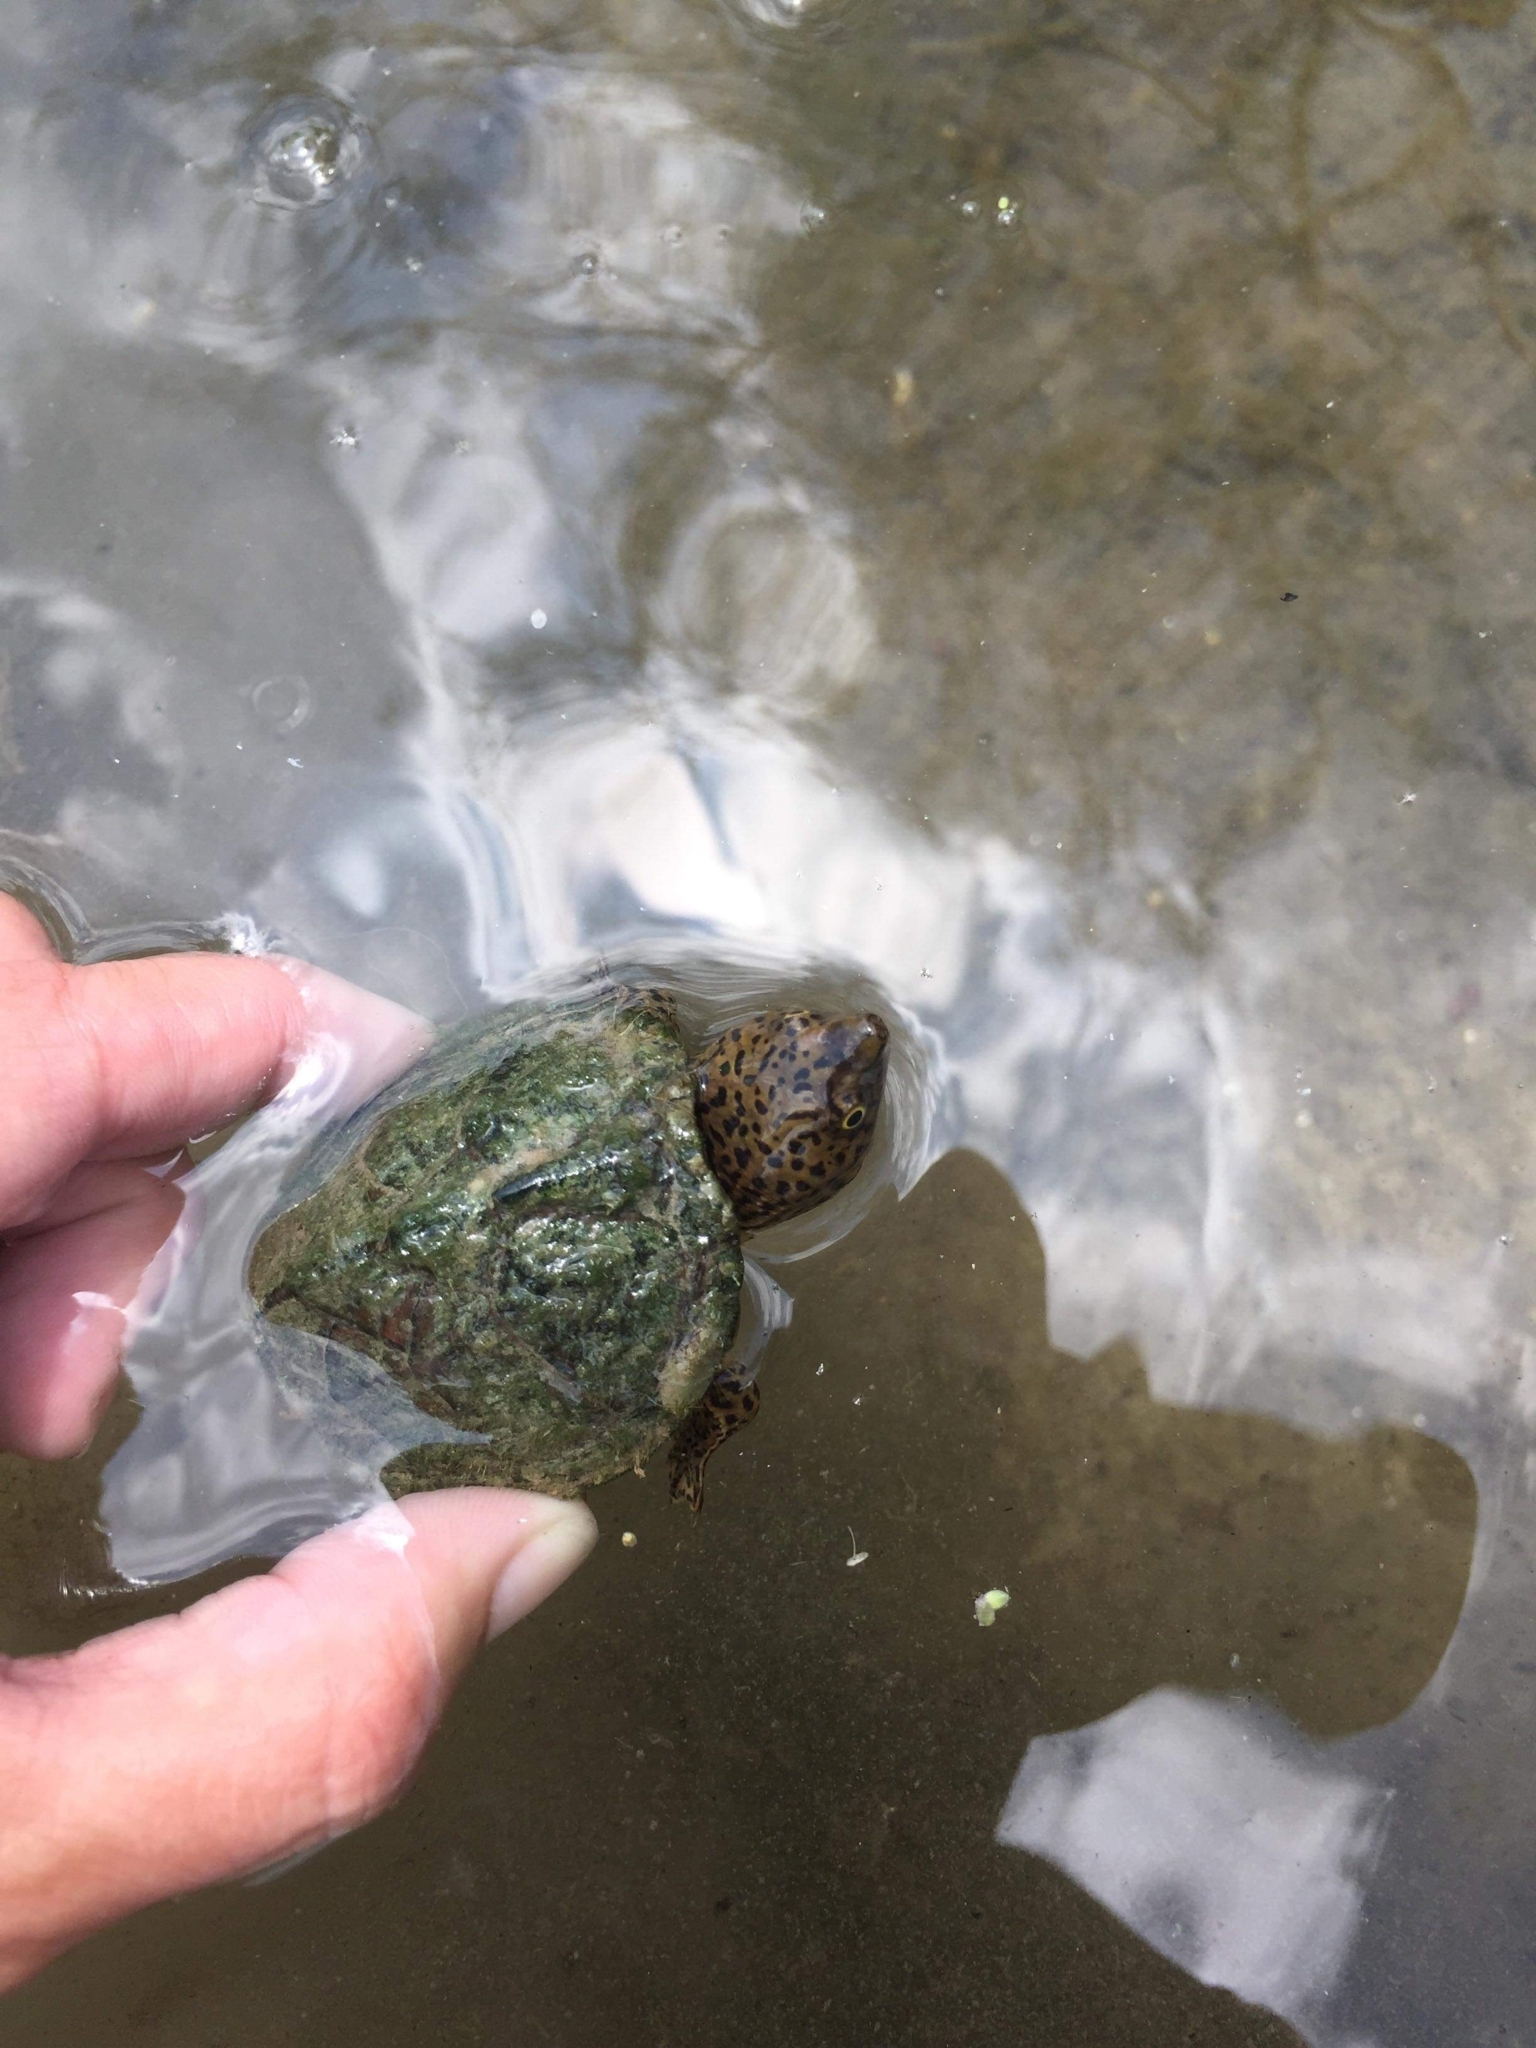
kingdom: Animalia
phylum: Chordata
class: Testudines
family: Kinosternidae
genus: Sternotherus
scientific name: Sternotherus minor
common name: Loggerhead musk turtle
